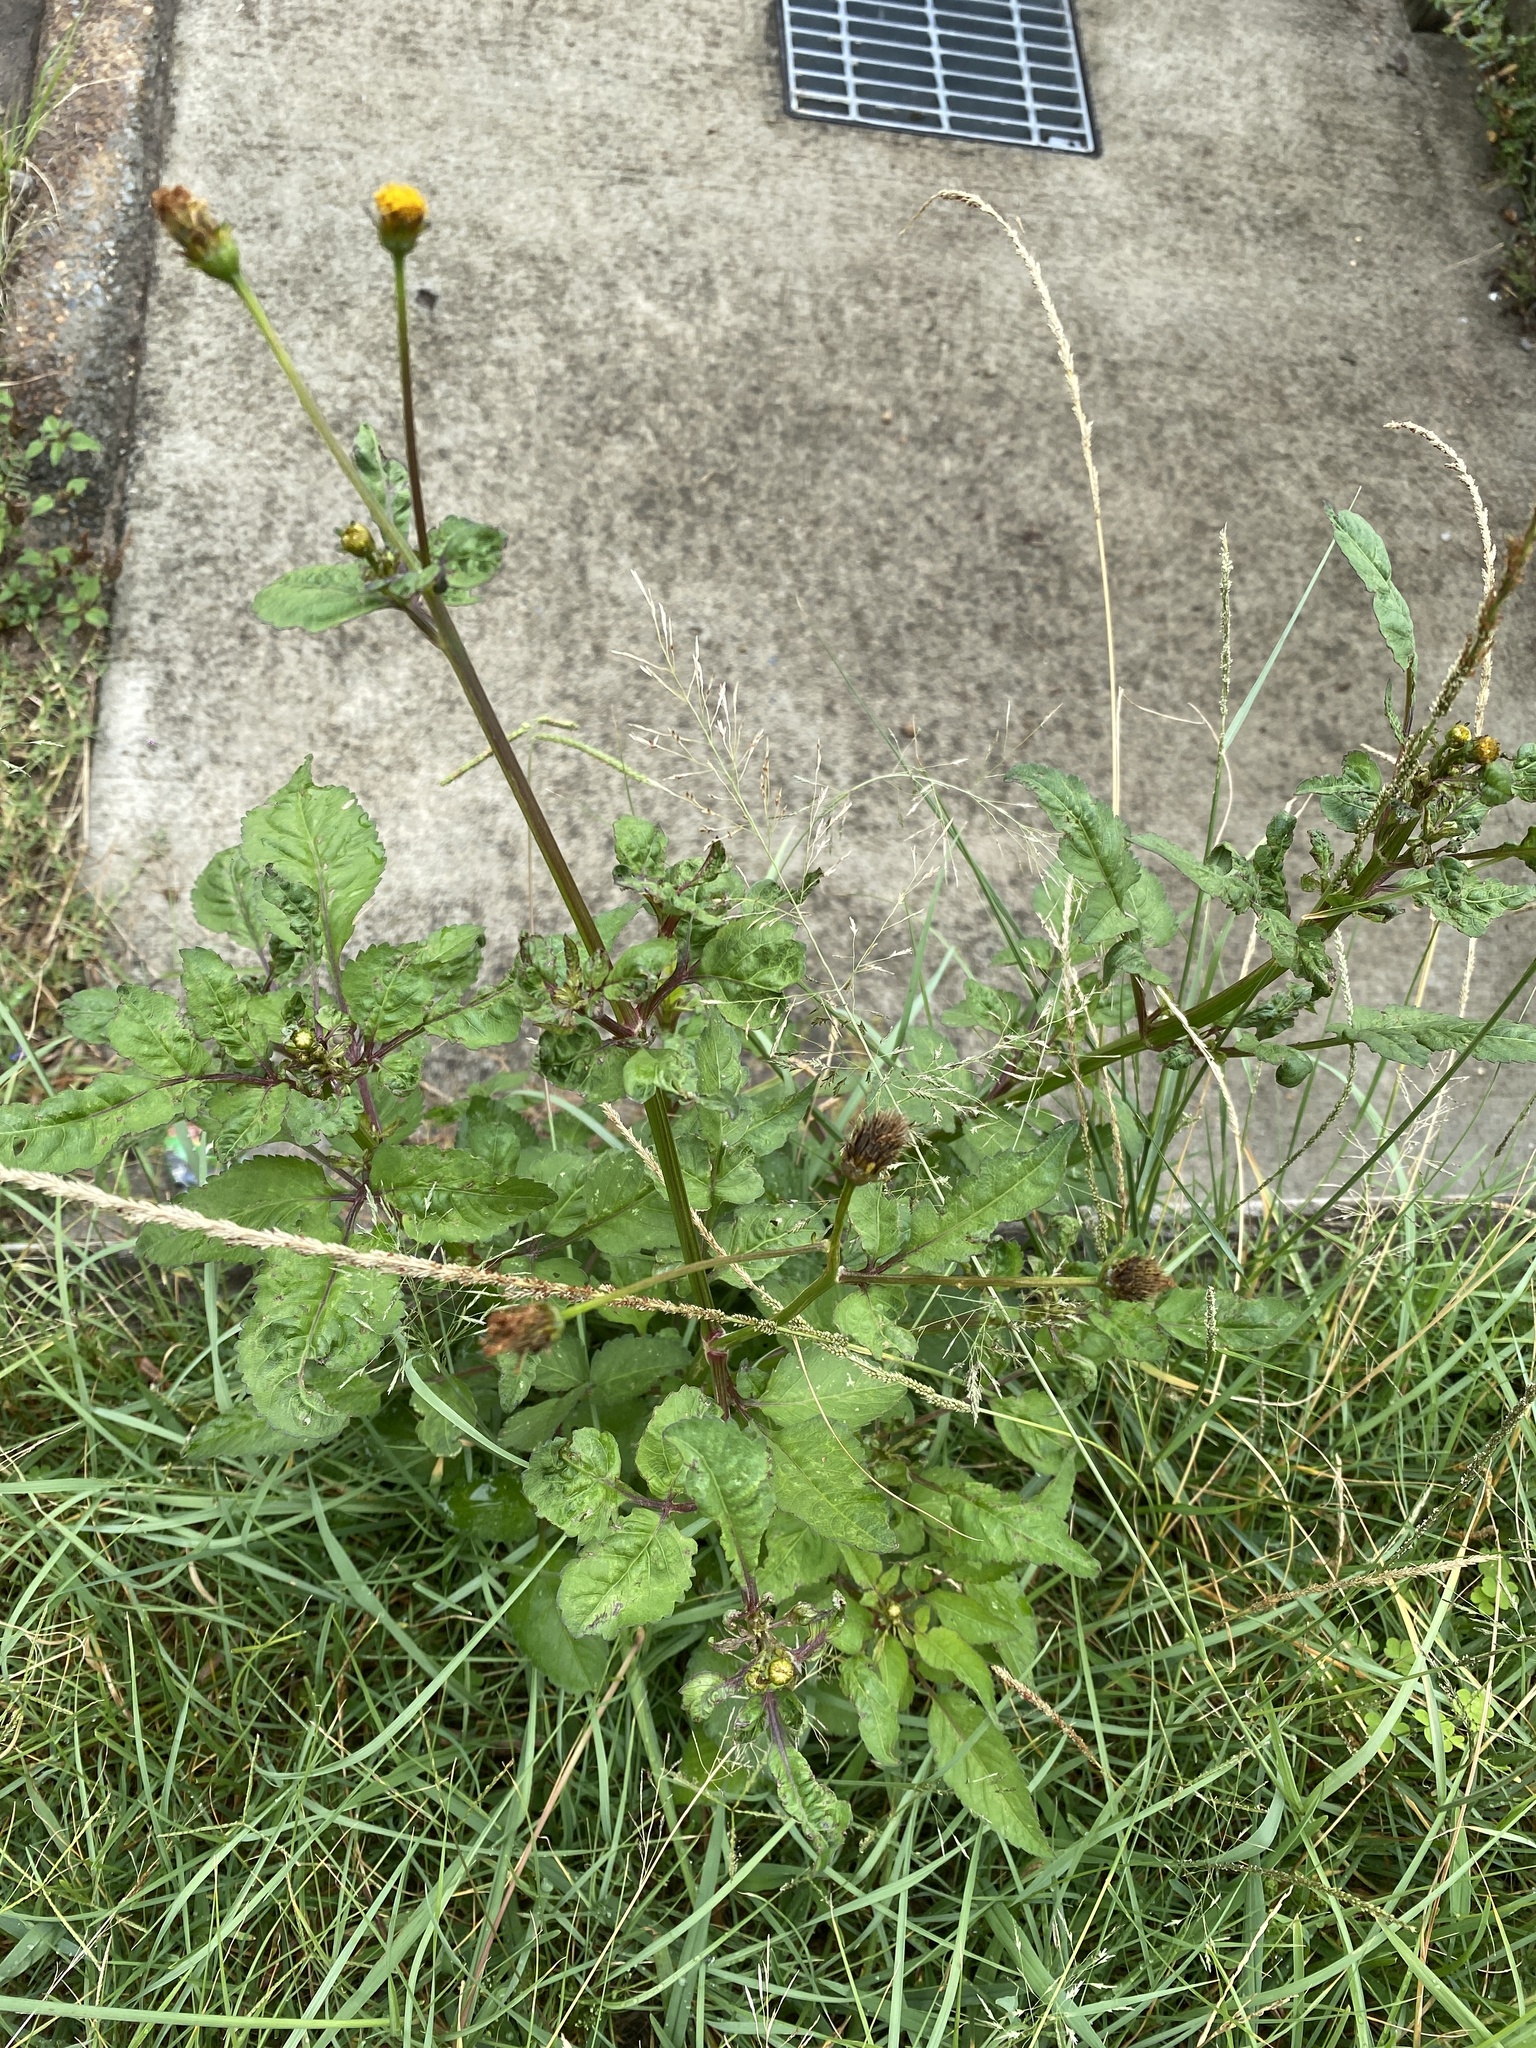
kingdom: Plantae
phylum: Tracheophyta
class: Magnoliopsida
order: Asterales
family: Asteraceae
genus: Bidens
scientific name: Bidens pilosa
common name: Black-jack
